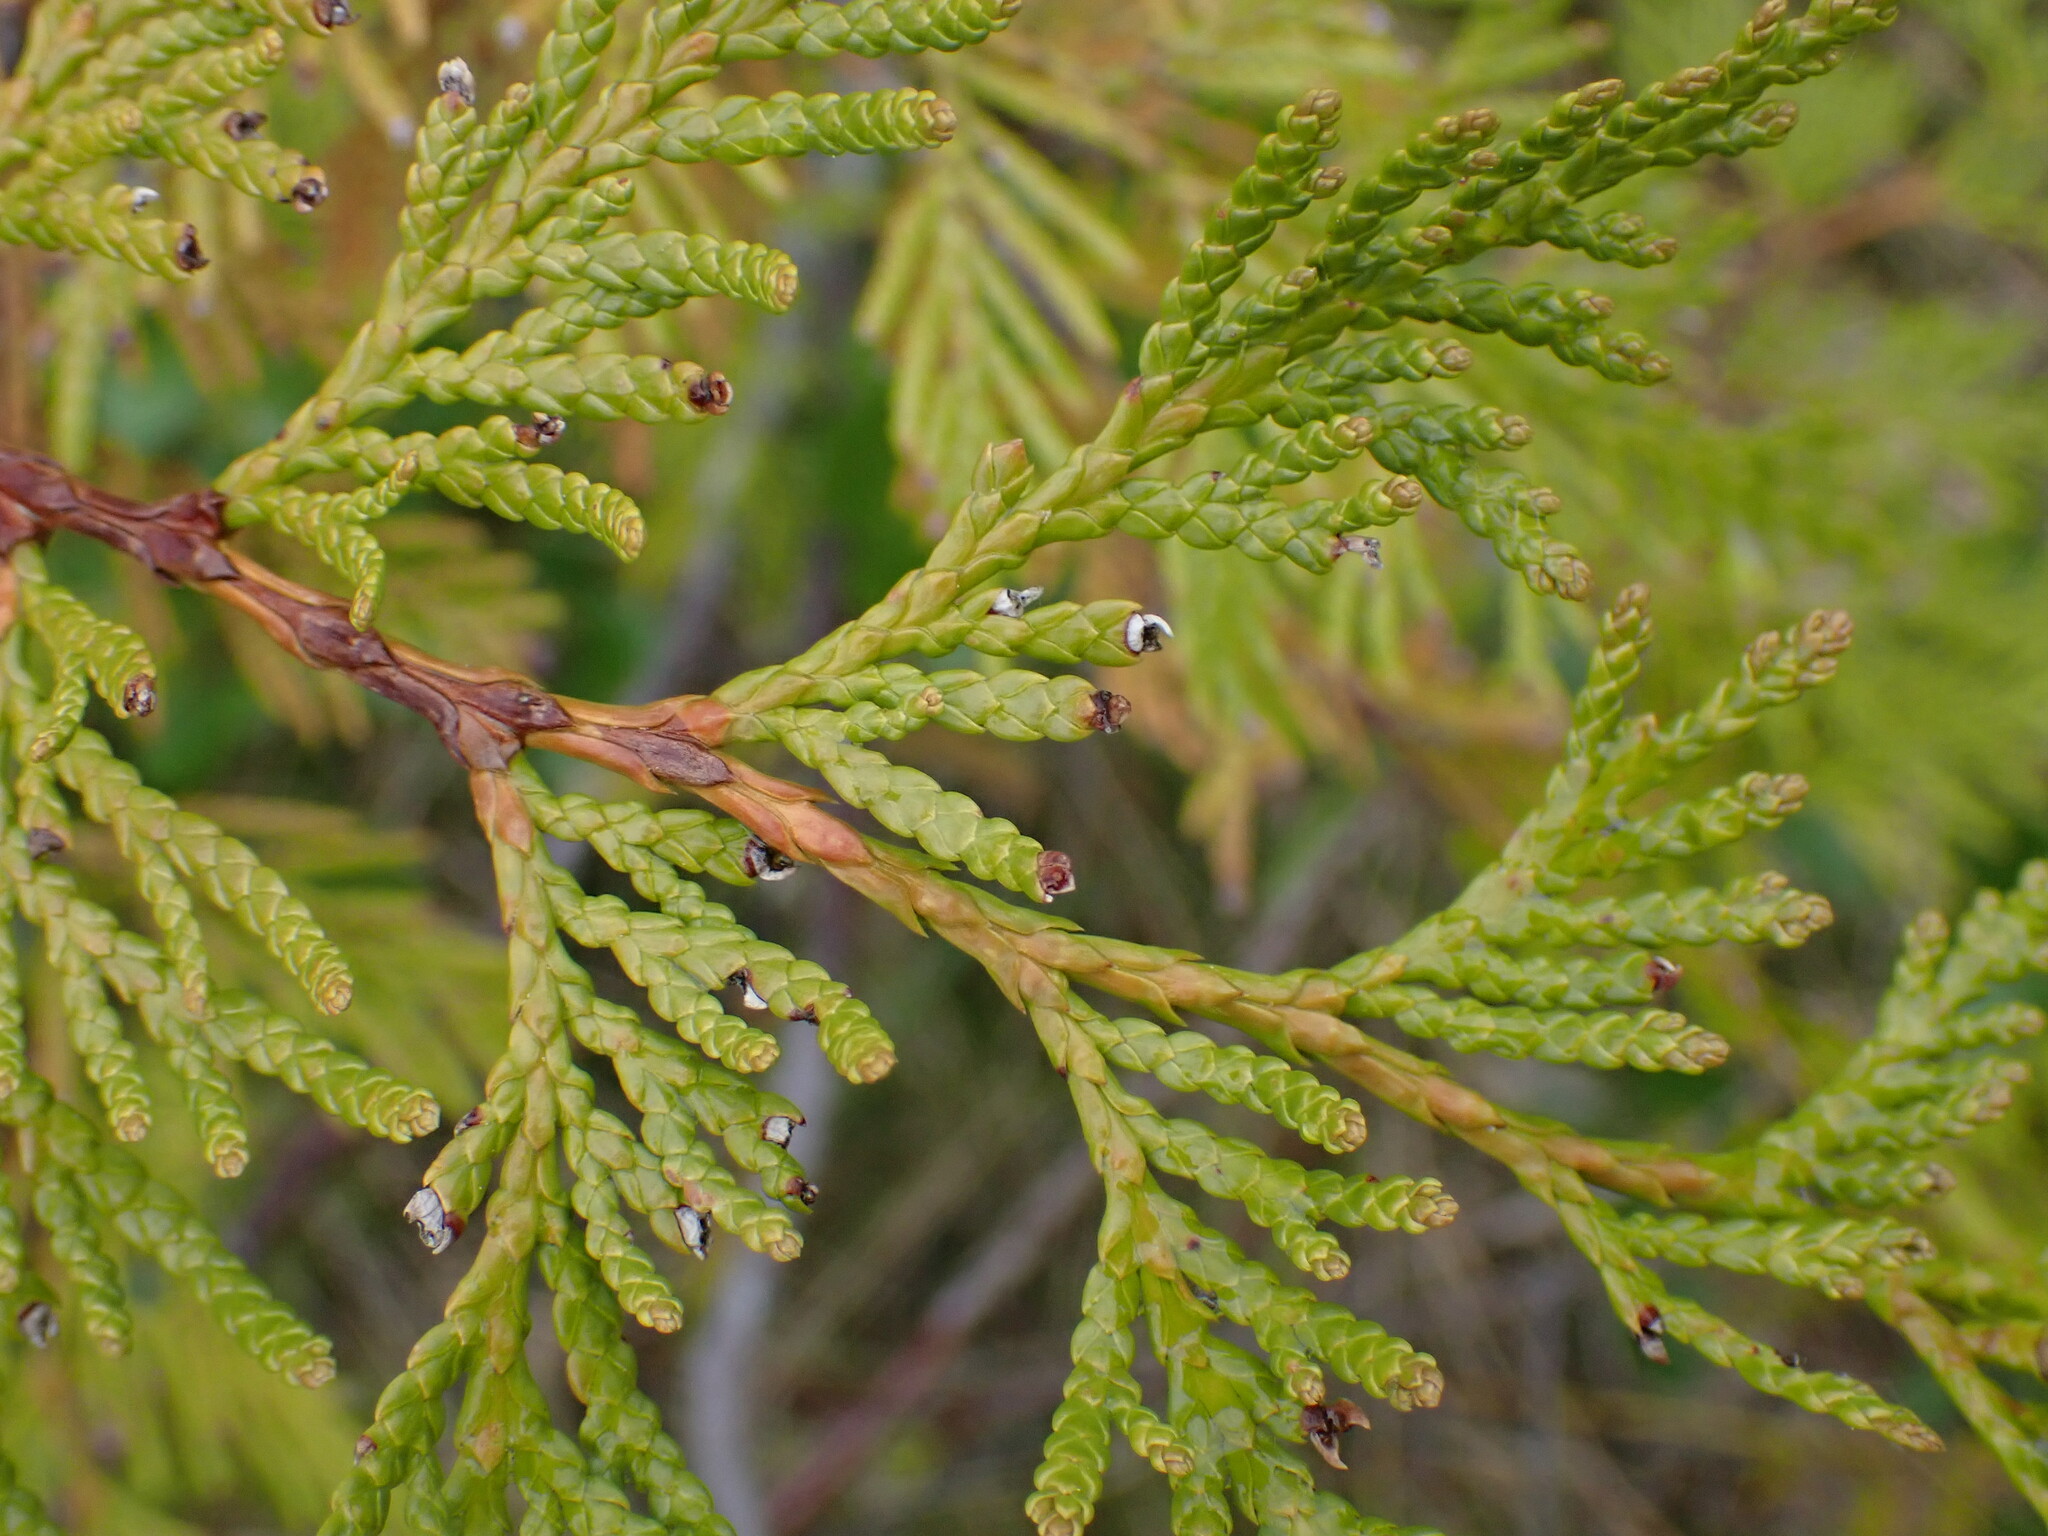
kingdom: Plantae
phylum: Tracheophyta
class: Pinopsida
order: Pinales
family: Cupressaceae
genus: Thuja
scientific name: Thuja plicata
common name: Western red-cedar
